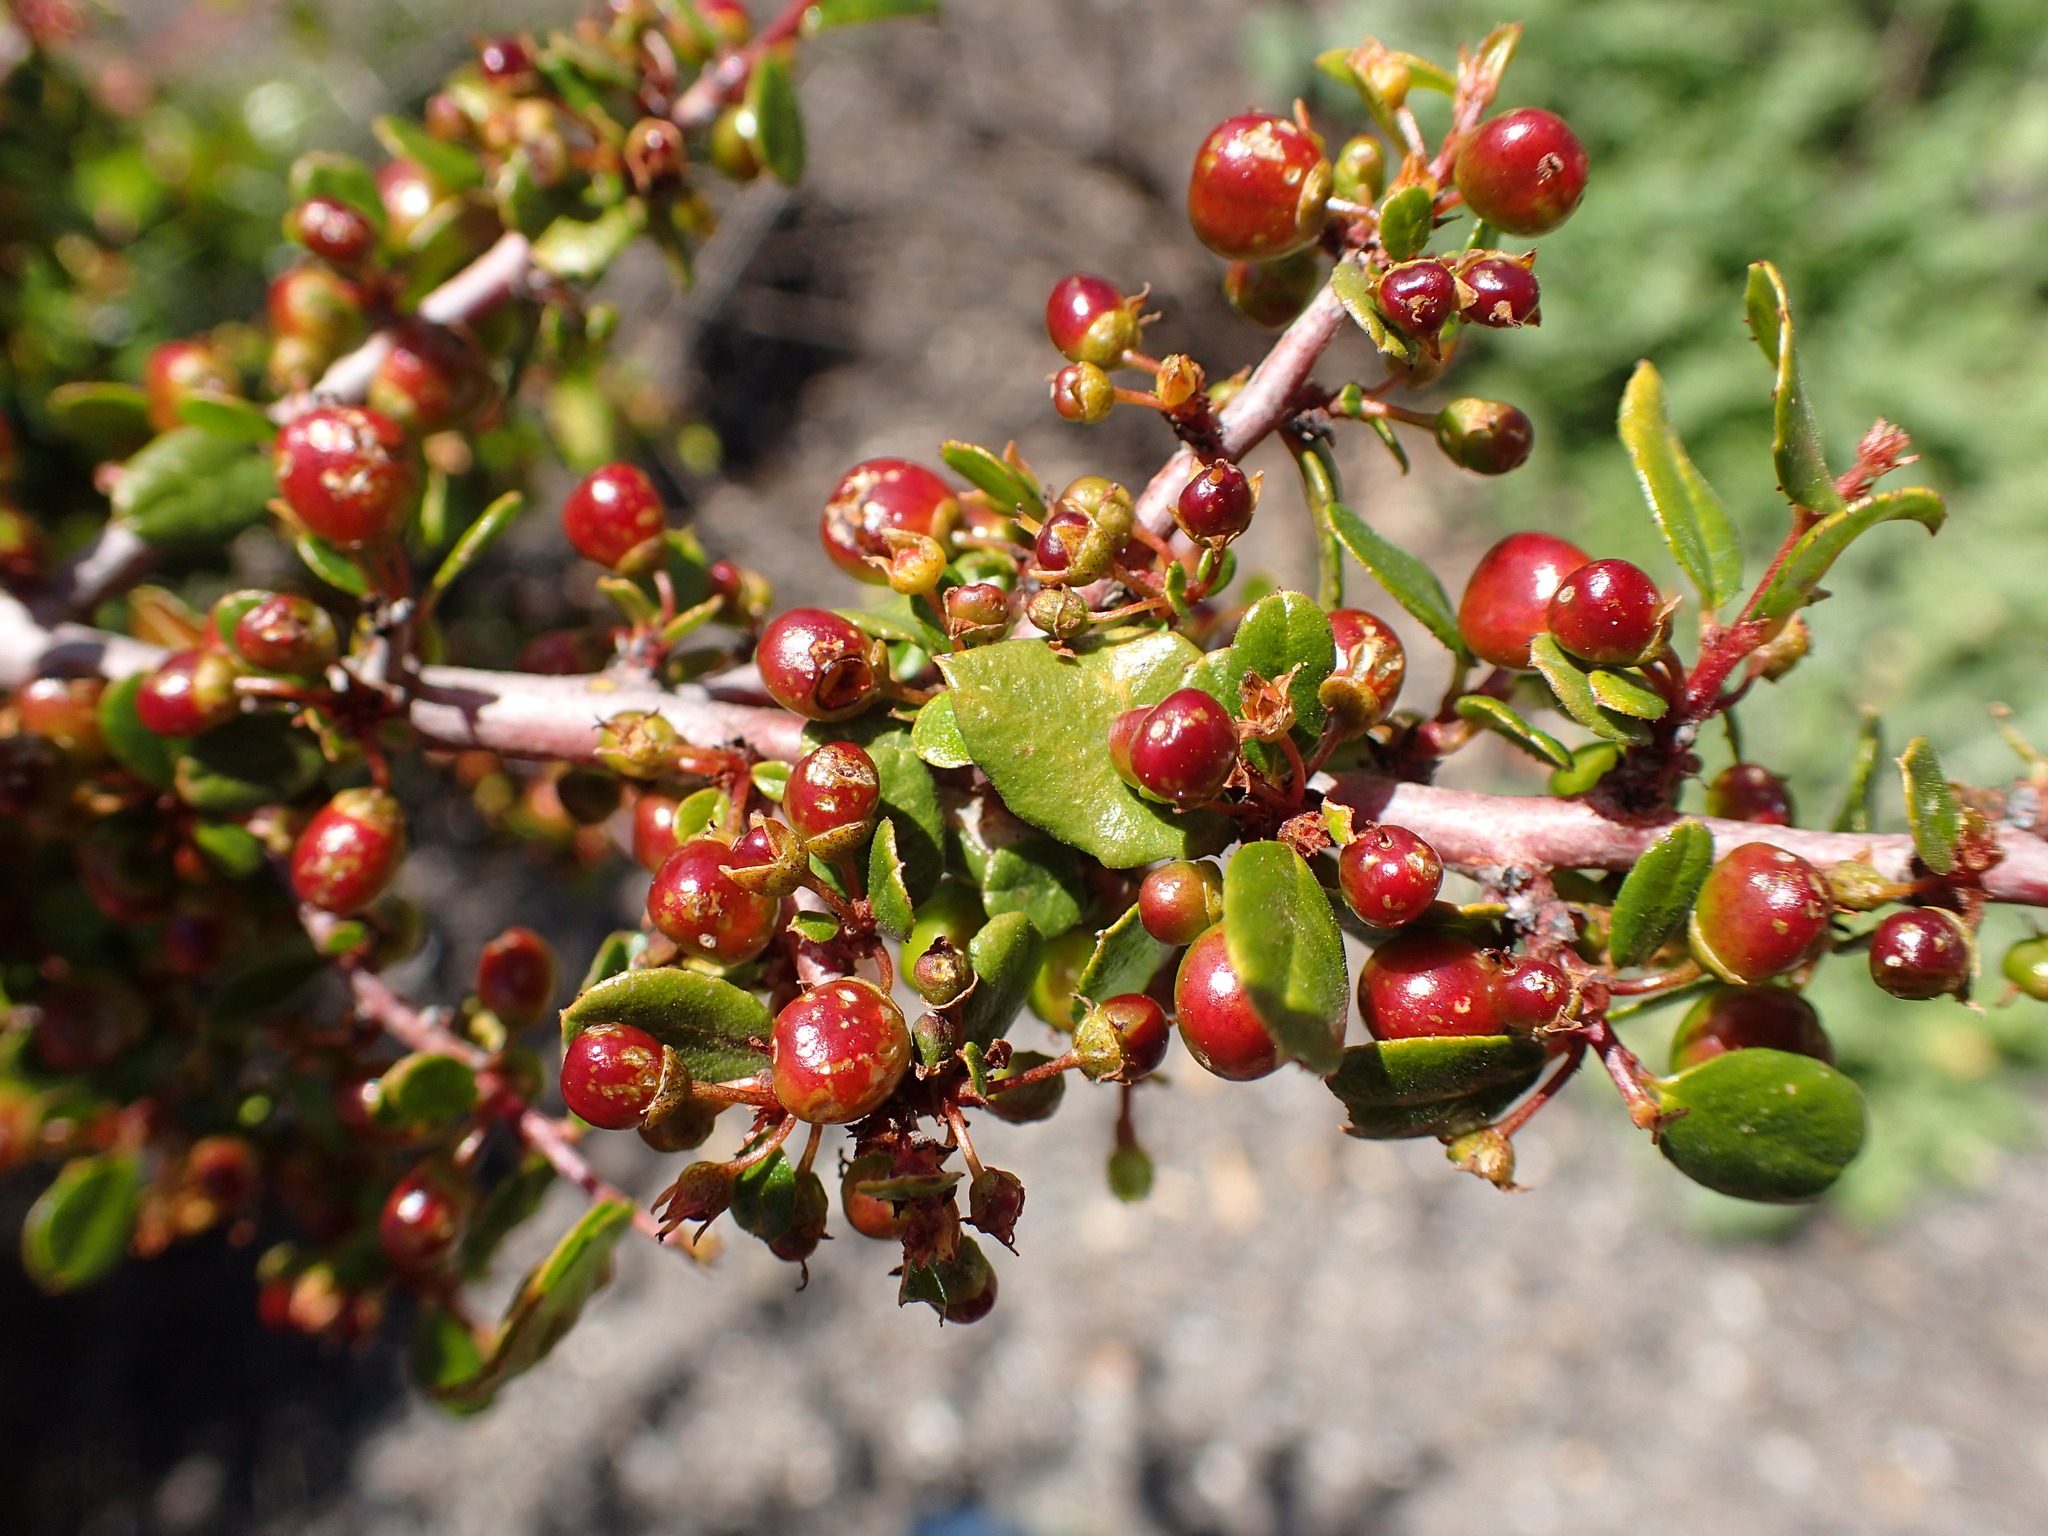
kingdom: Plantae
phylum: Tracheophyta
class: Magnoliopsida
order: Rosales
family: Rhamnaceae
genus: Endotropis
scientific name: Endotropis crocea
